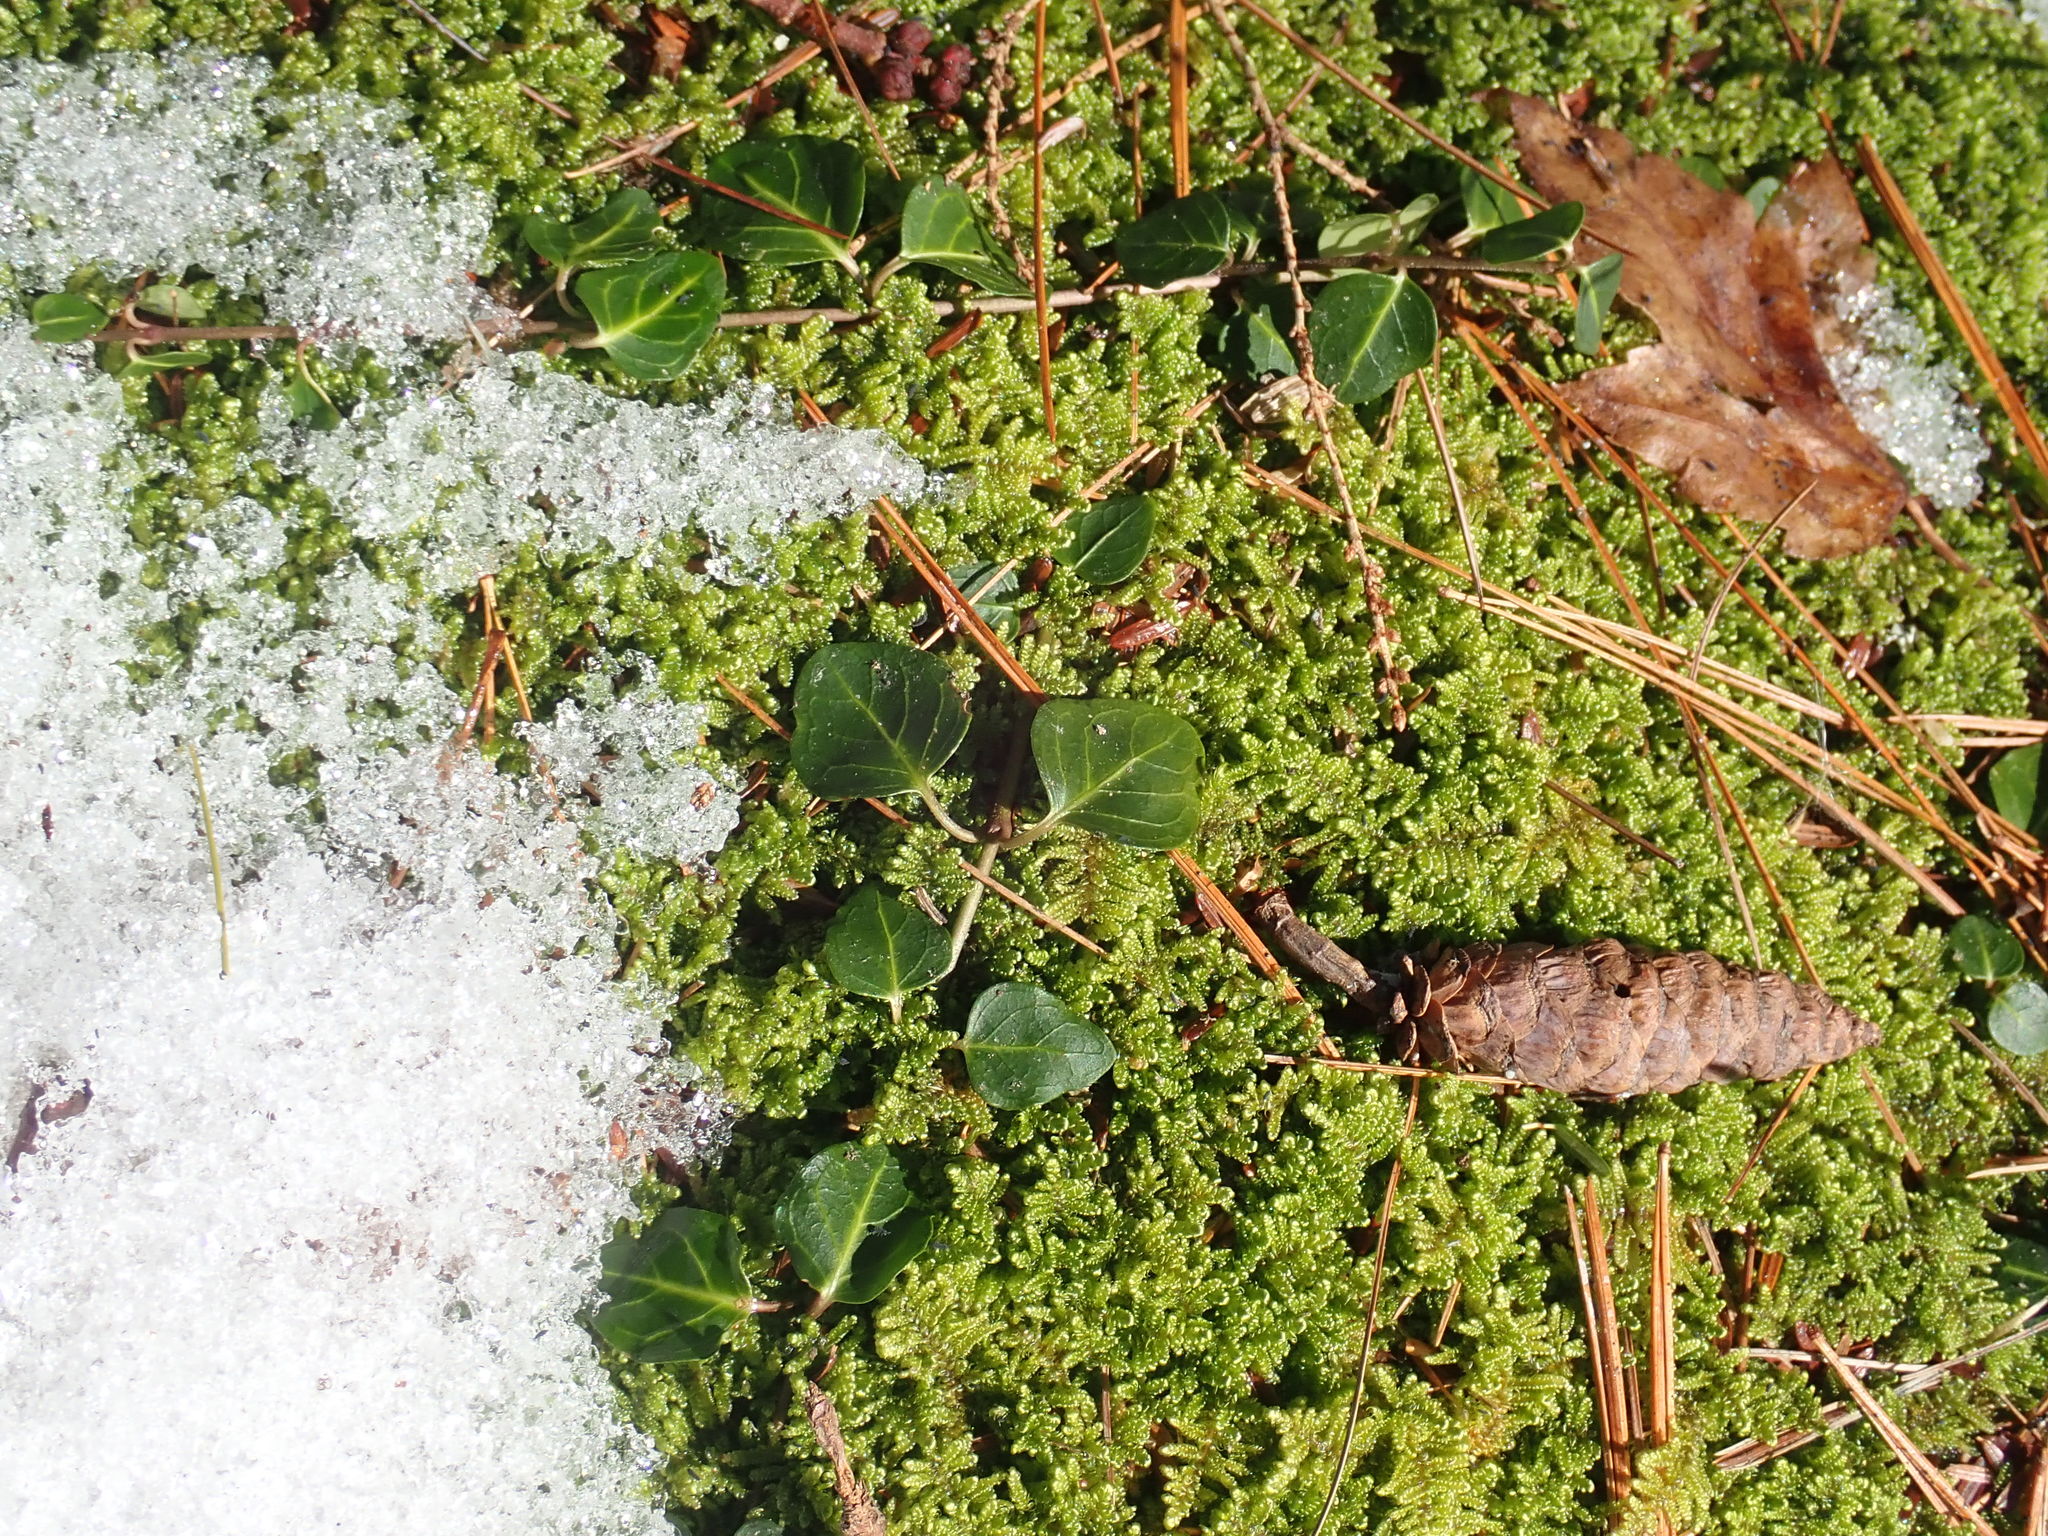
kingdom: Plantae
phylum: Tracheophyta
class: Magnoliopsida
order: Gentianales
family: Rubiaceae
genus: Mitchella
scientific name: Mitchella repens
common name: Partridge-berry
